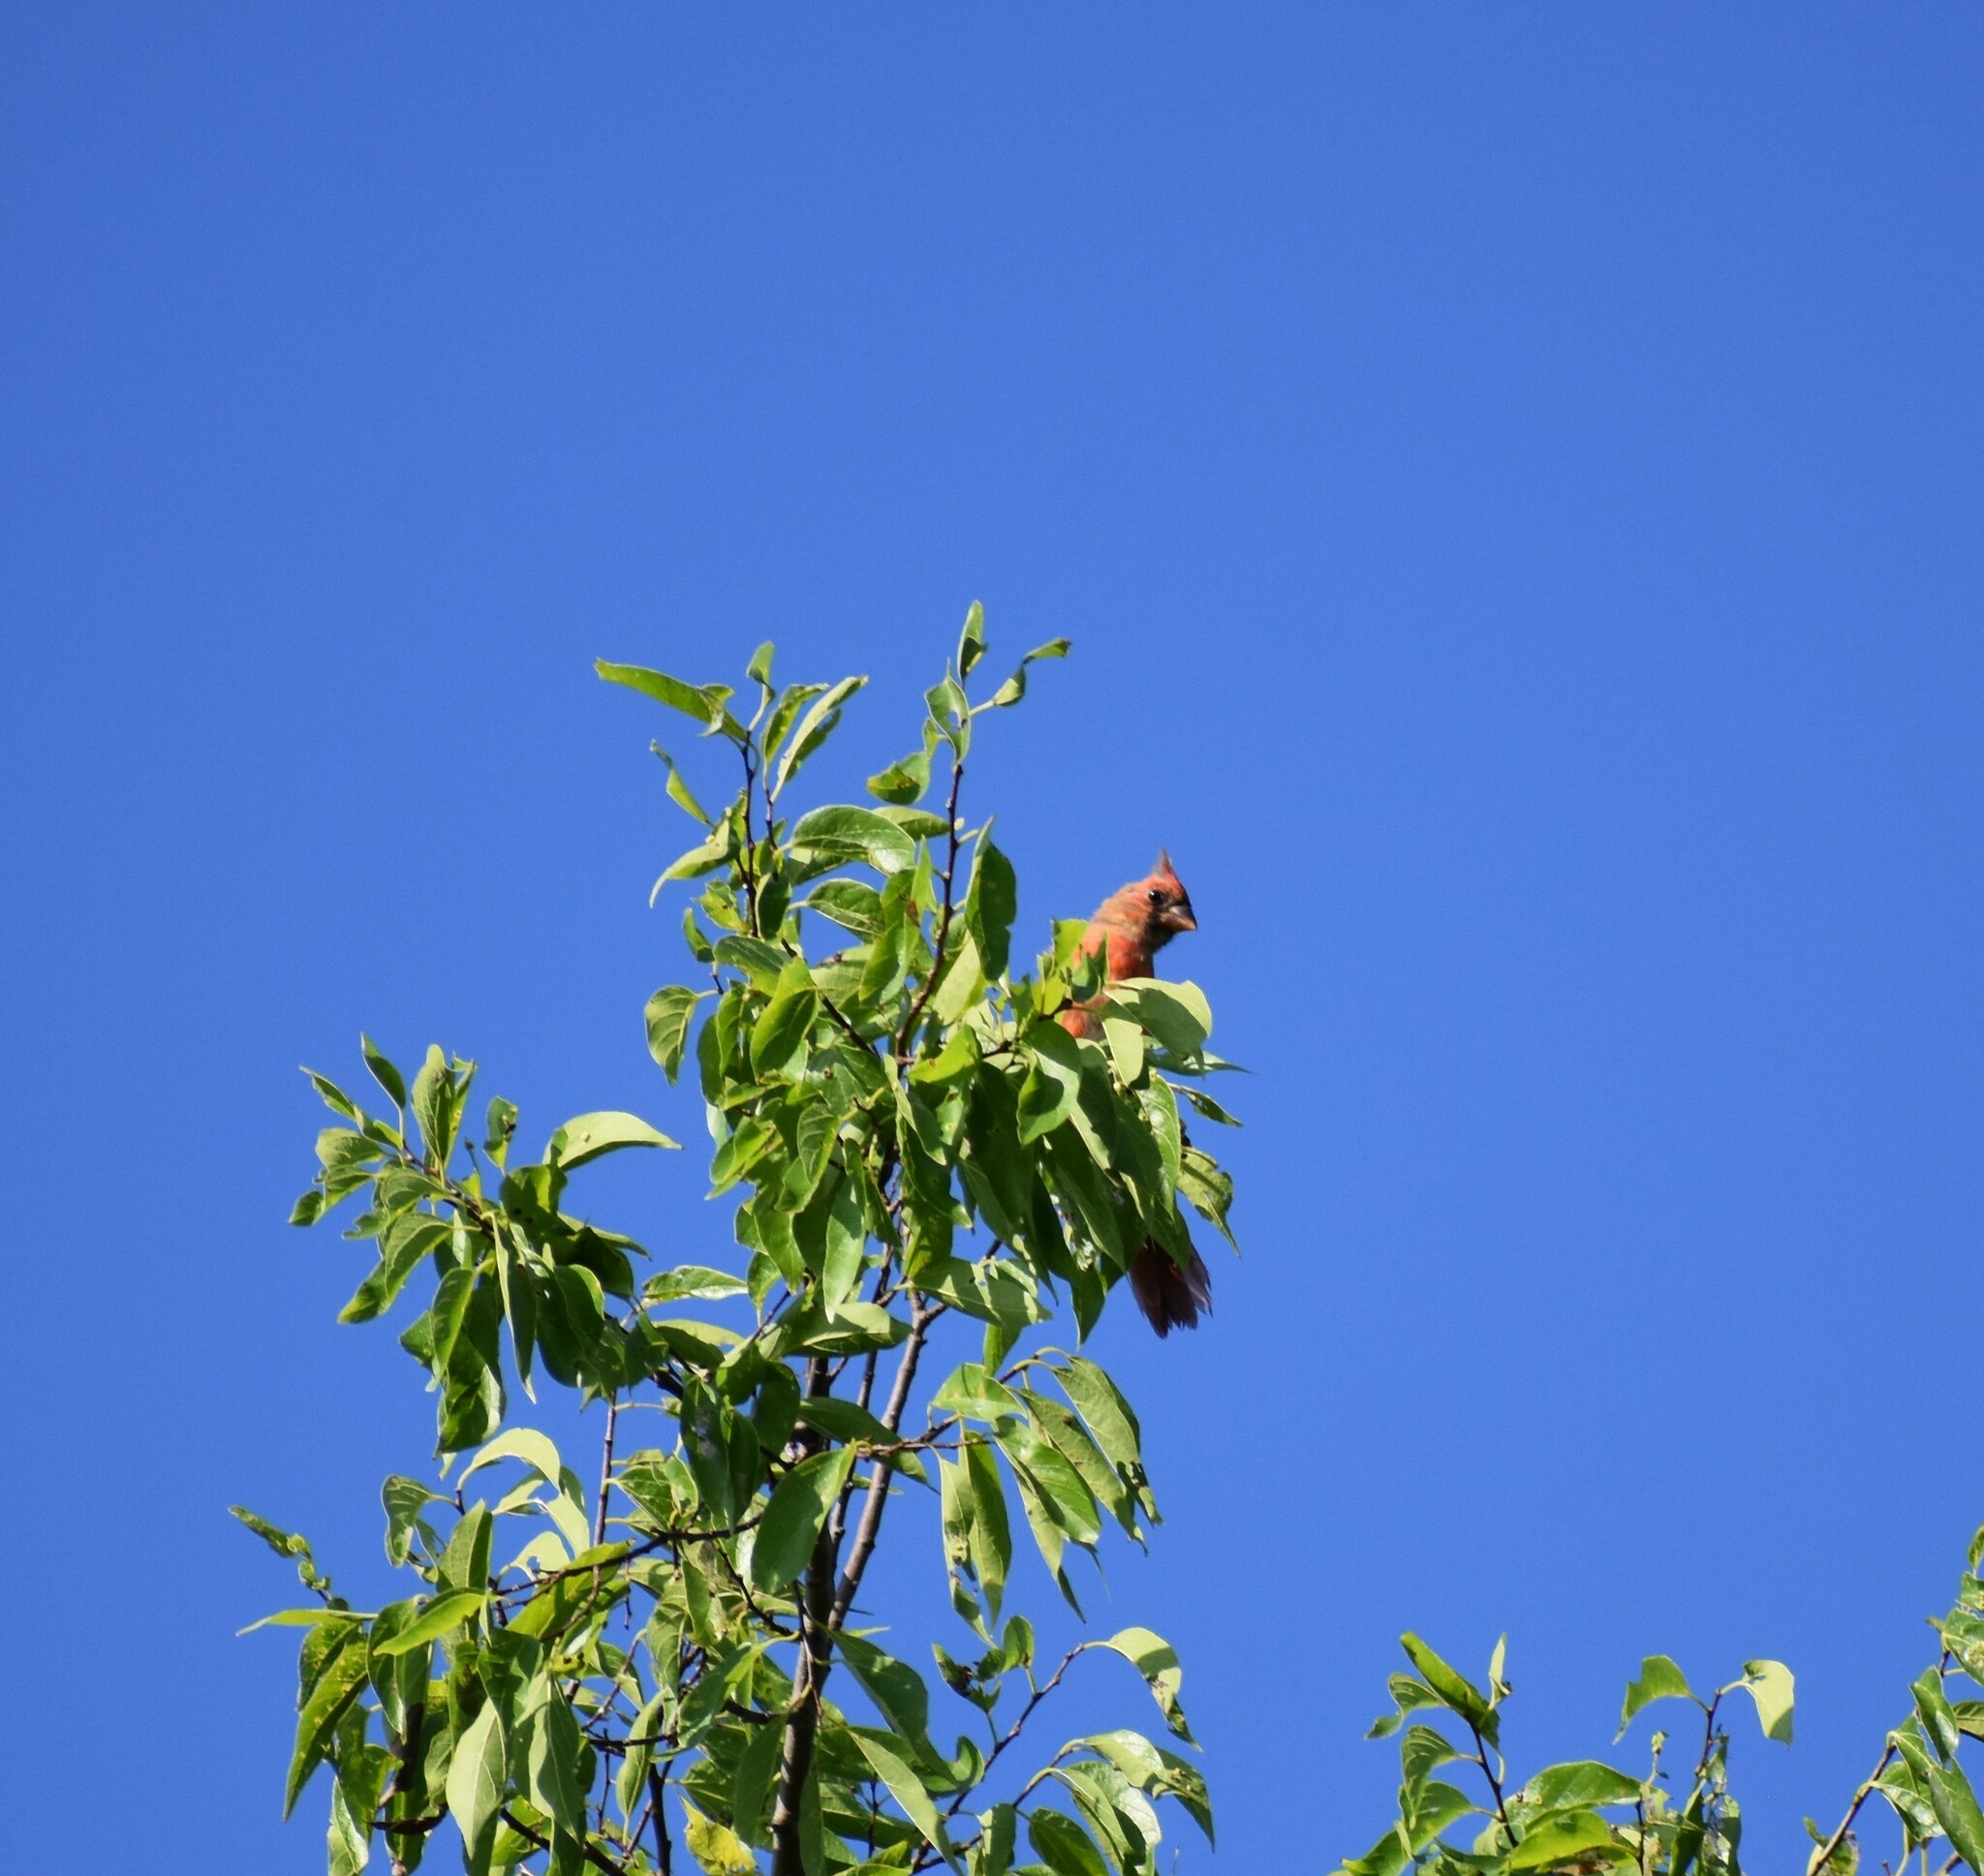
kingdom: Animalia
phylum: Chordata
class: Aves
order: Passeriformes
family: Cardinalidae
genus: Cardinalis
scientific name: Cardinalis cardinalis
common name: Northern cardinal
